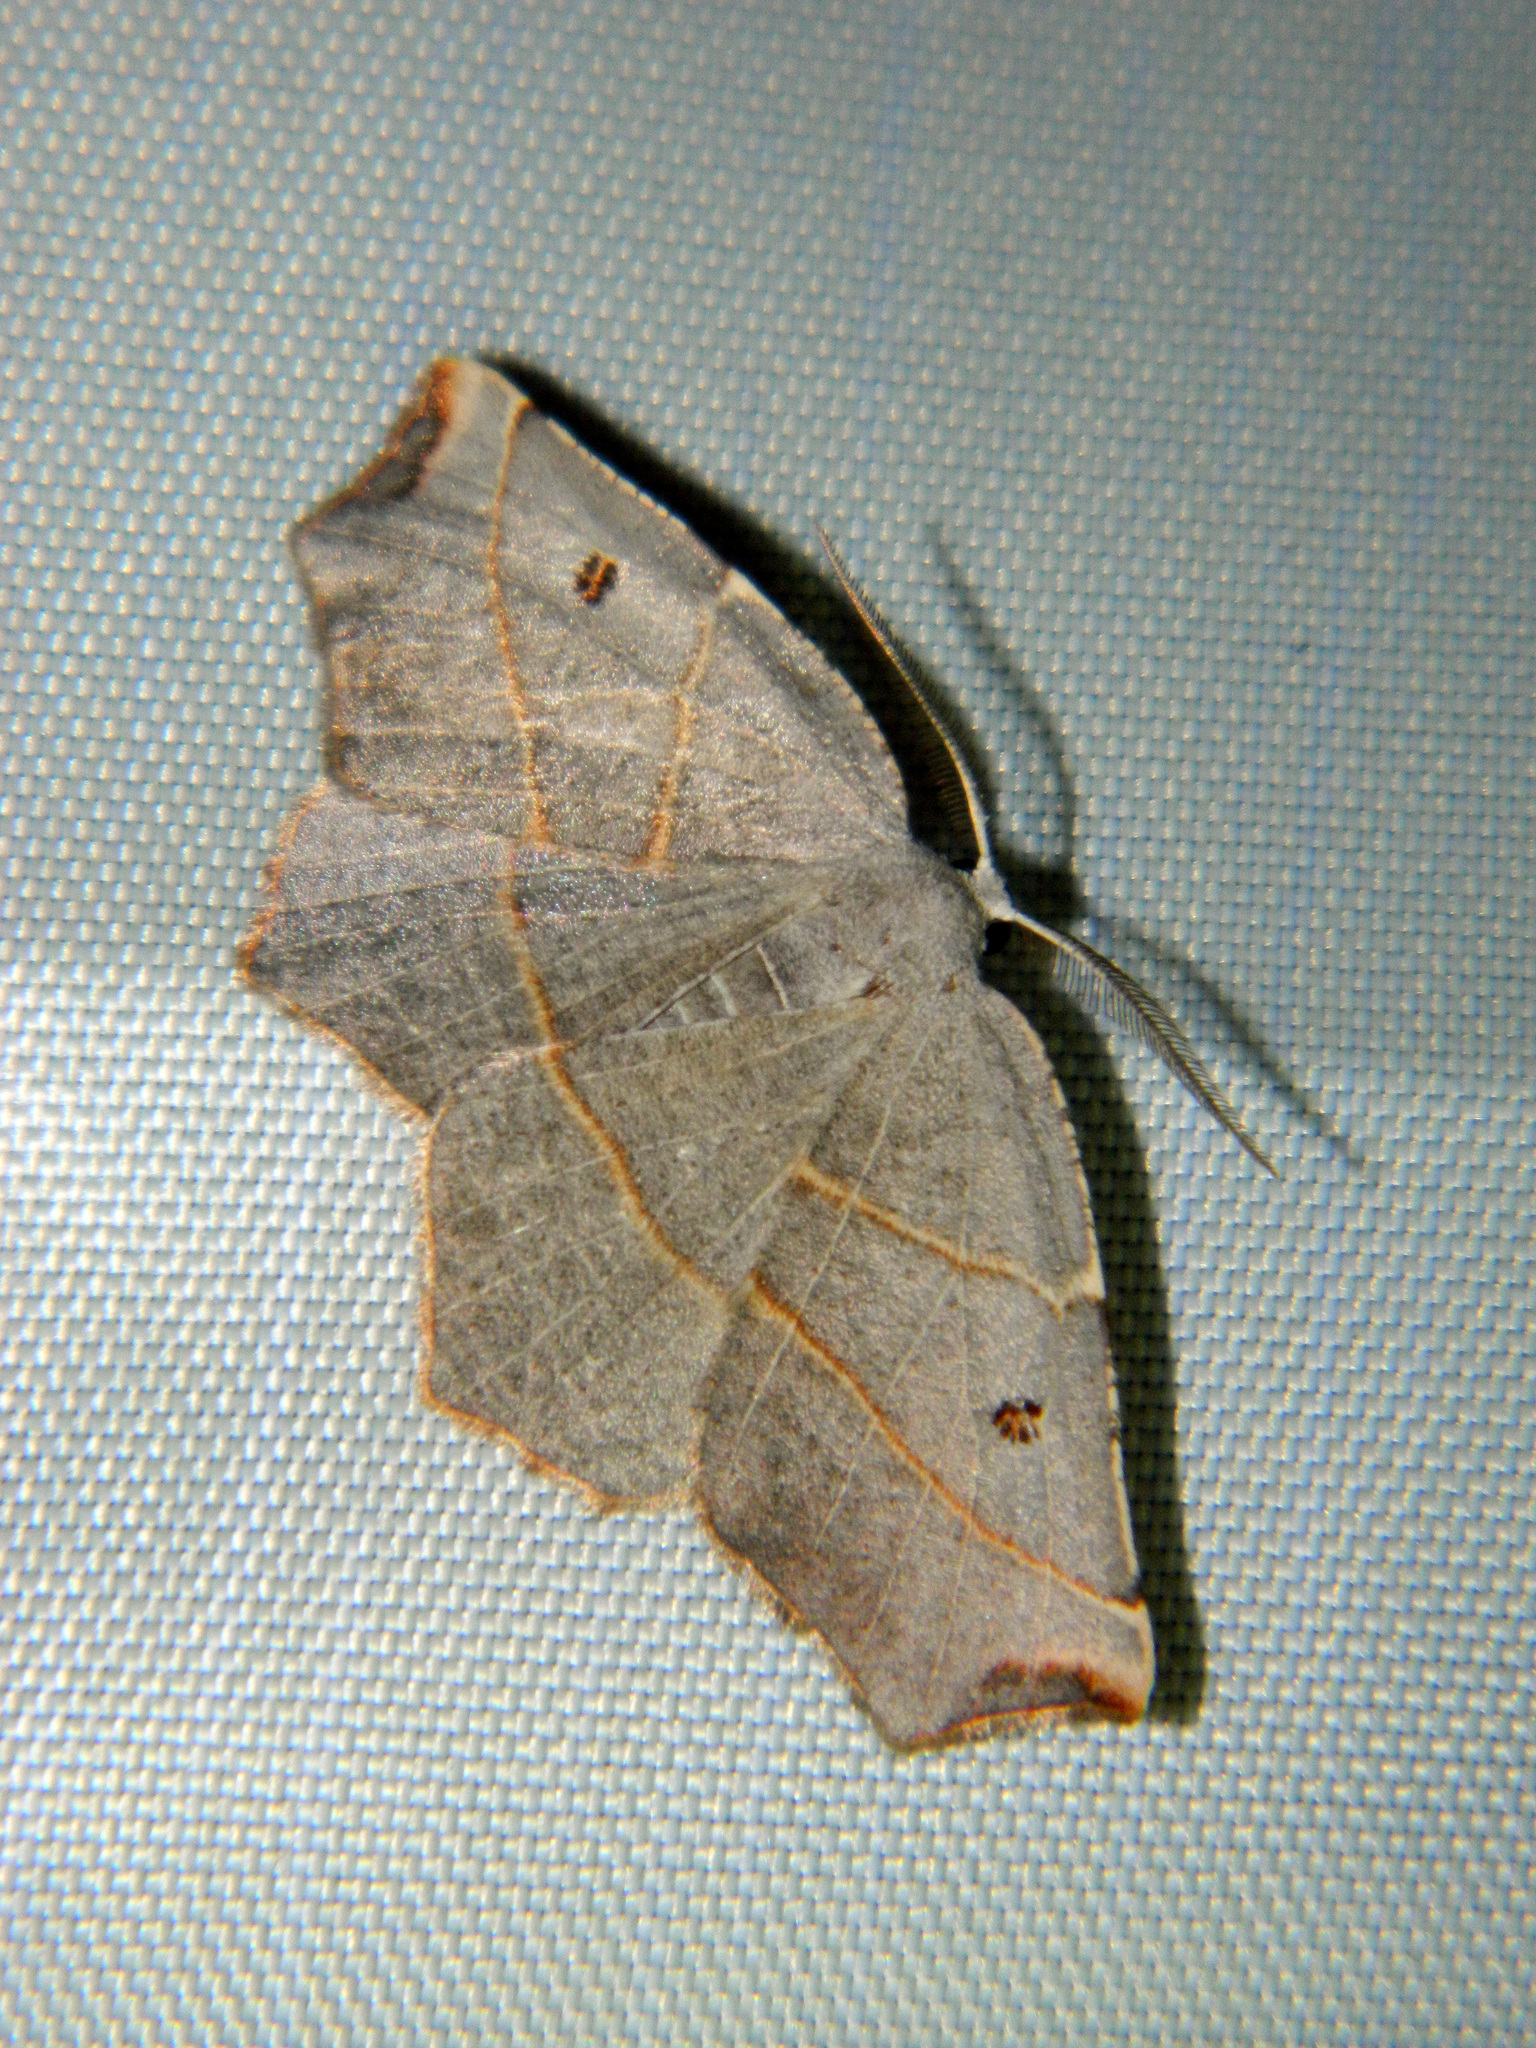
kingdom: Animalia
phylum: Arthropoda
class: Insecta
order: Lepidoptera
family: Geometridae
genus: Metanema
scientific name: Metanema inatomaria
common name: Pale metanema
